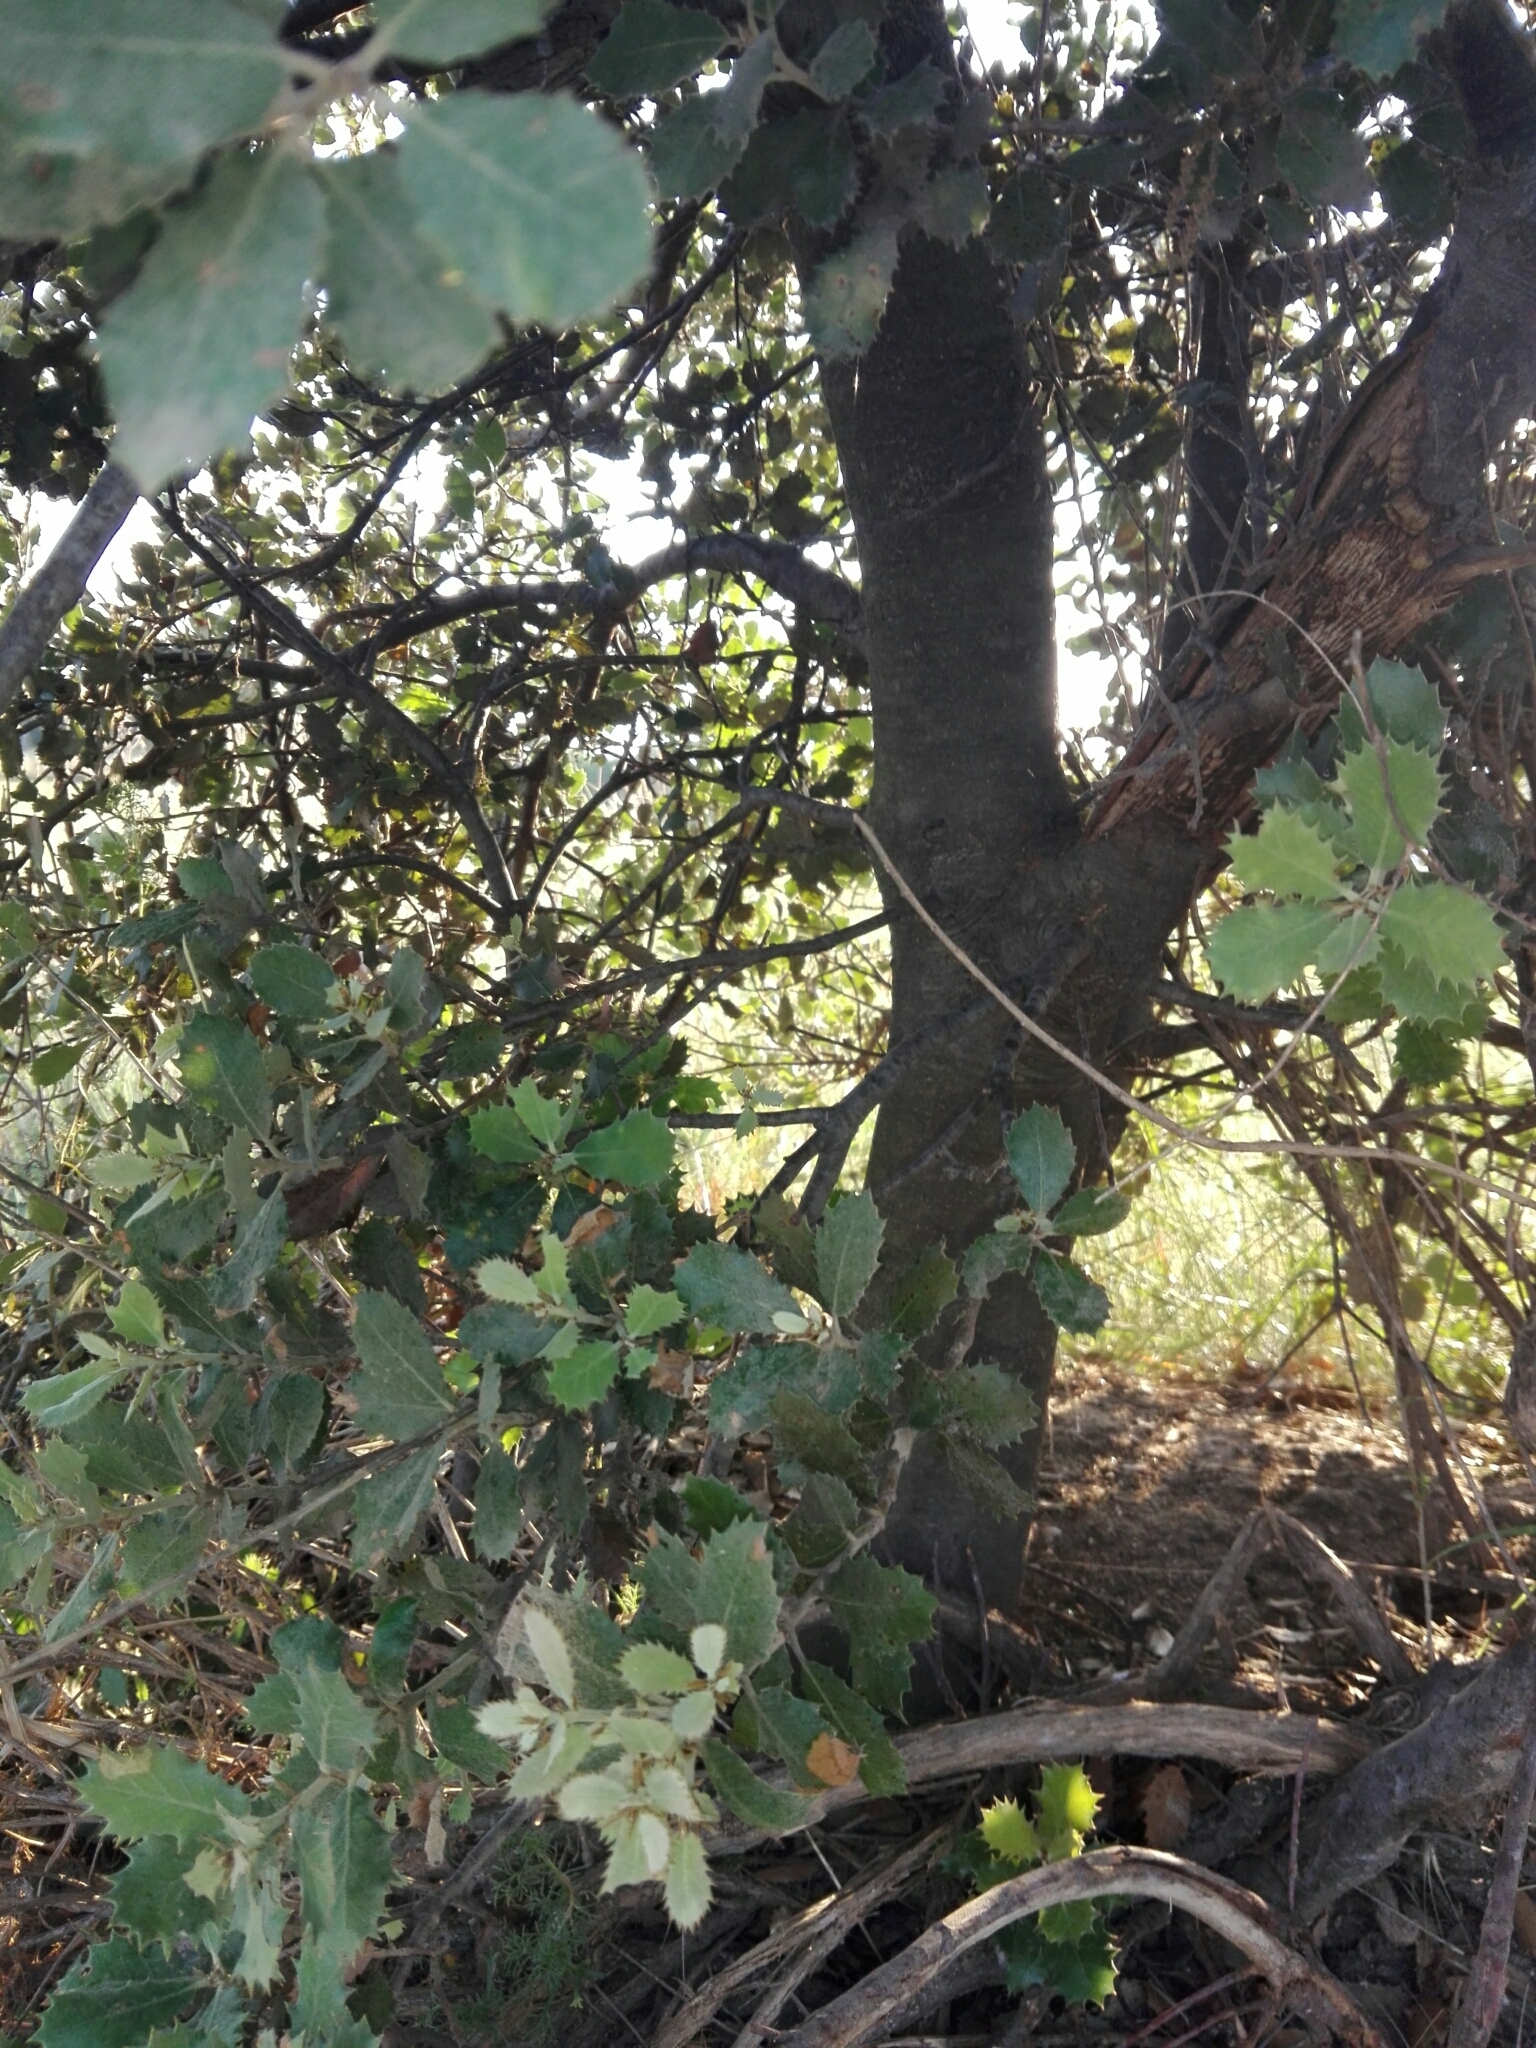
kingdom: Plantae
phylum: Tracheophyta
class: Magnoliopsida
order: Fagales
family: Fagaceae
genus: Quercus
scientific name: Quercus rotundifolia
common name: Holm oak
